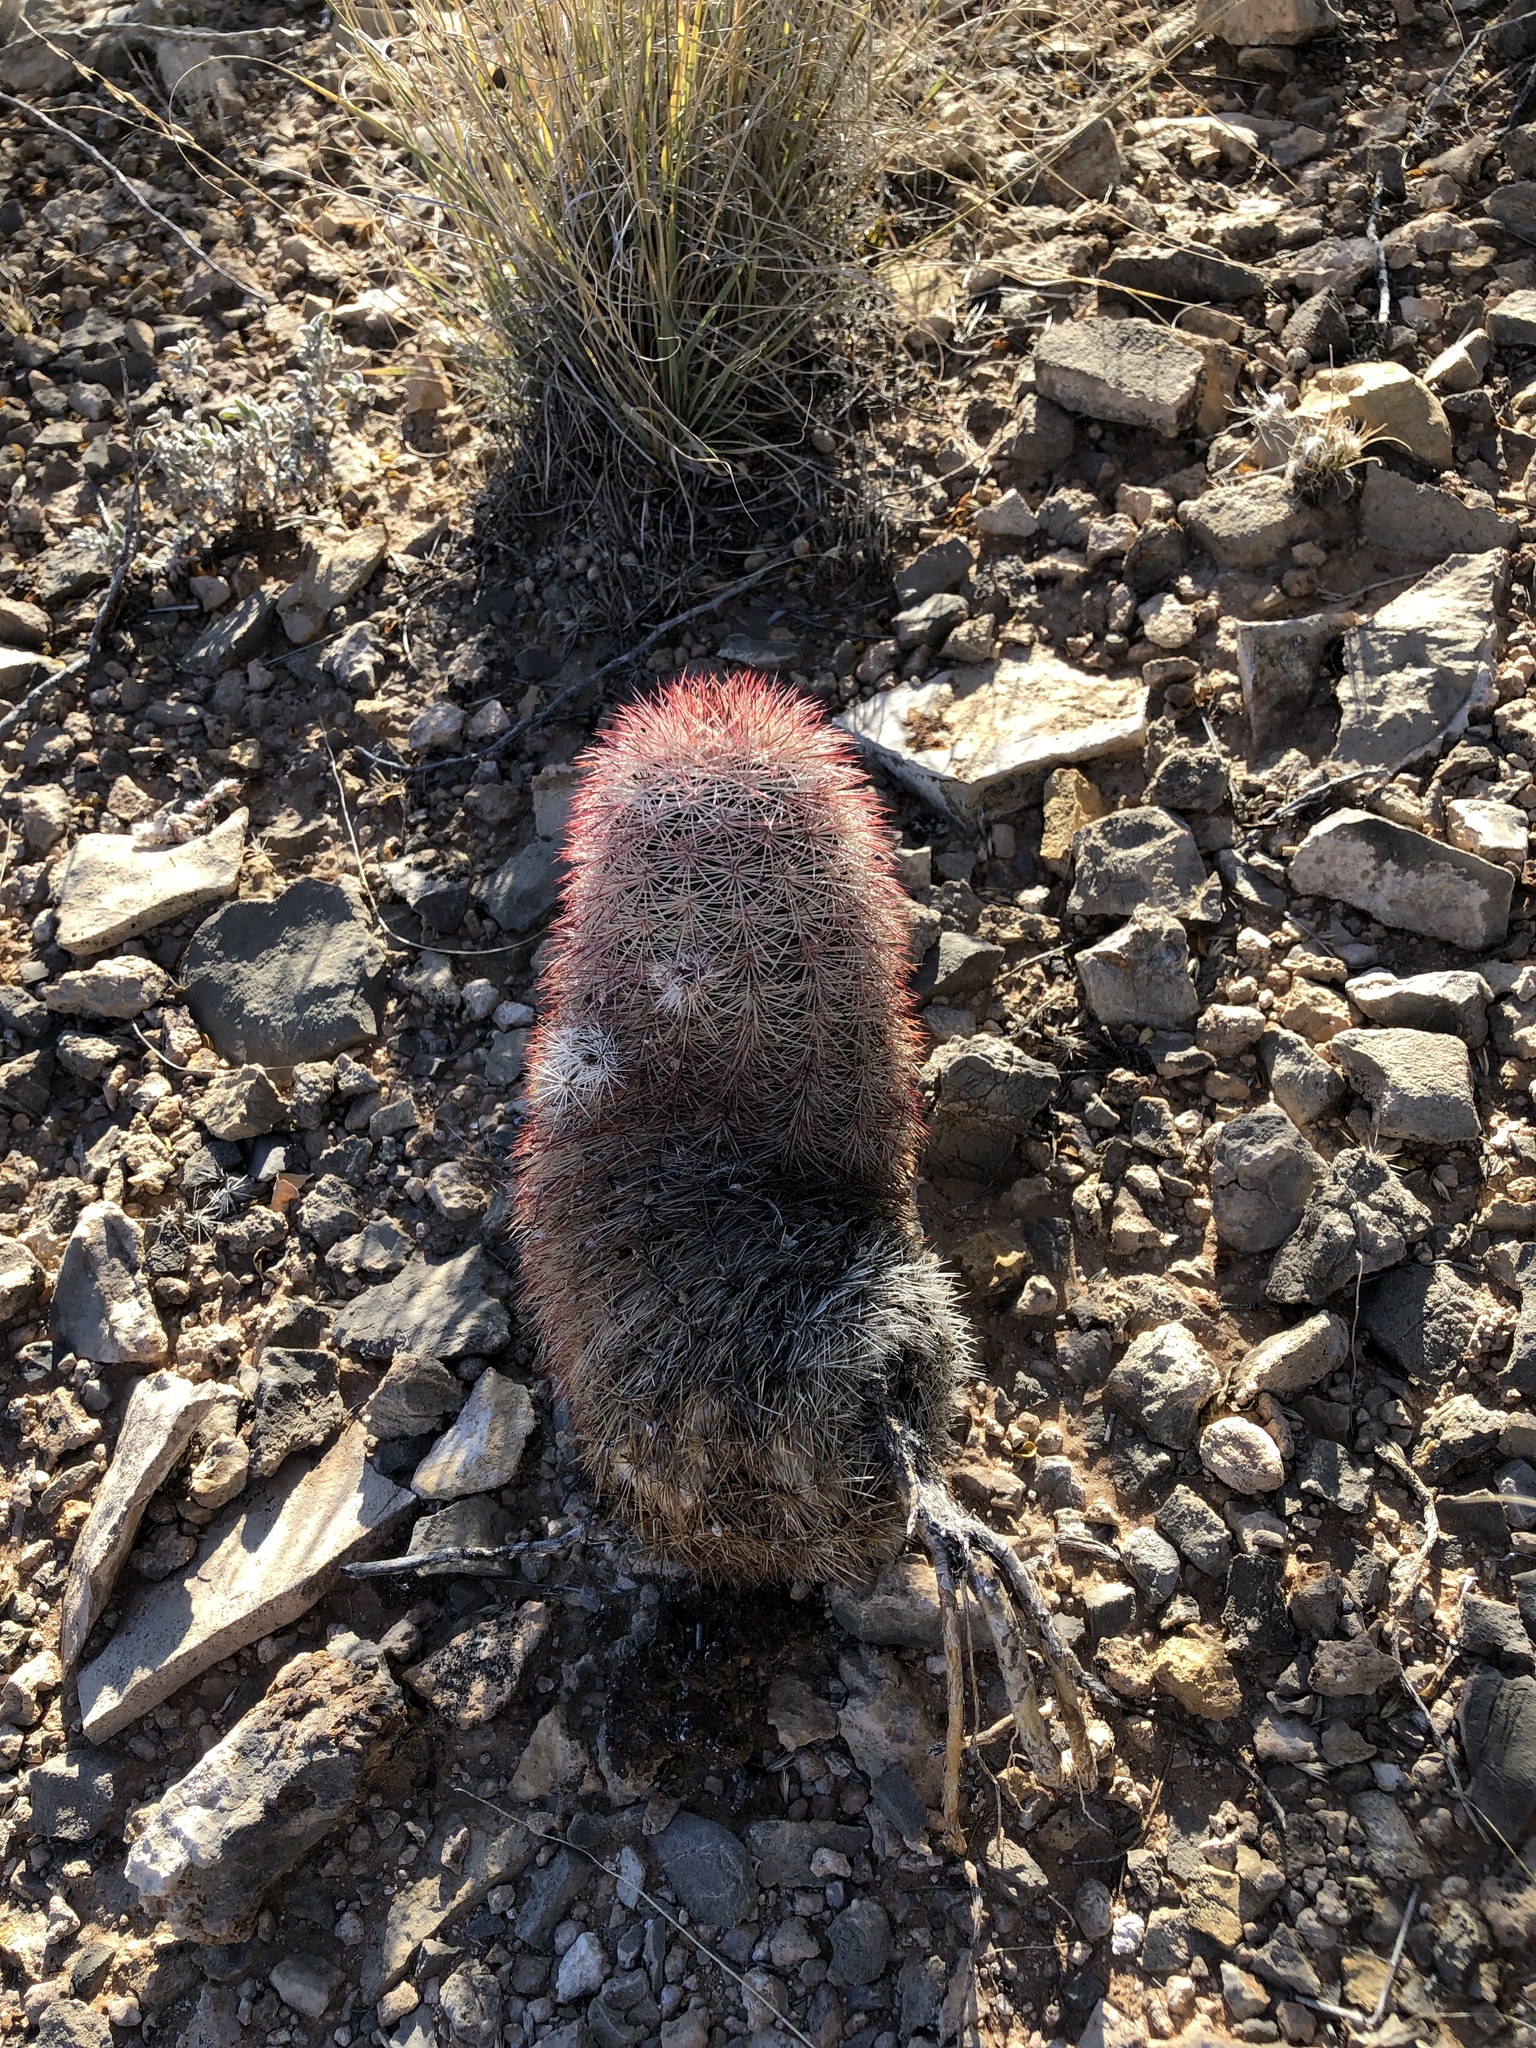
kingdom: Plantae
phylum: Tracheophyta
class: Magnoliopsida
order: Caryophyllales
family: Cactaceae
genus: Echinocereus
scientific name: Echinocereus dasyacanthus
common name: Spiny hedgehog cactus
